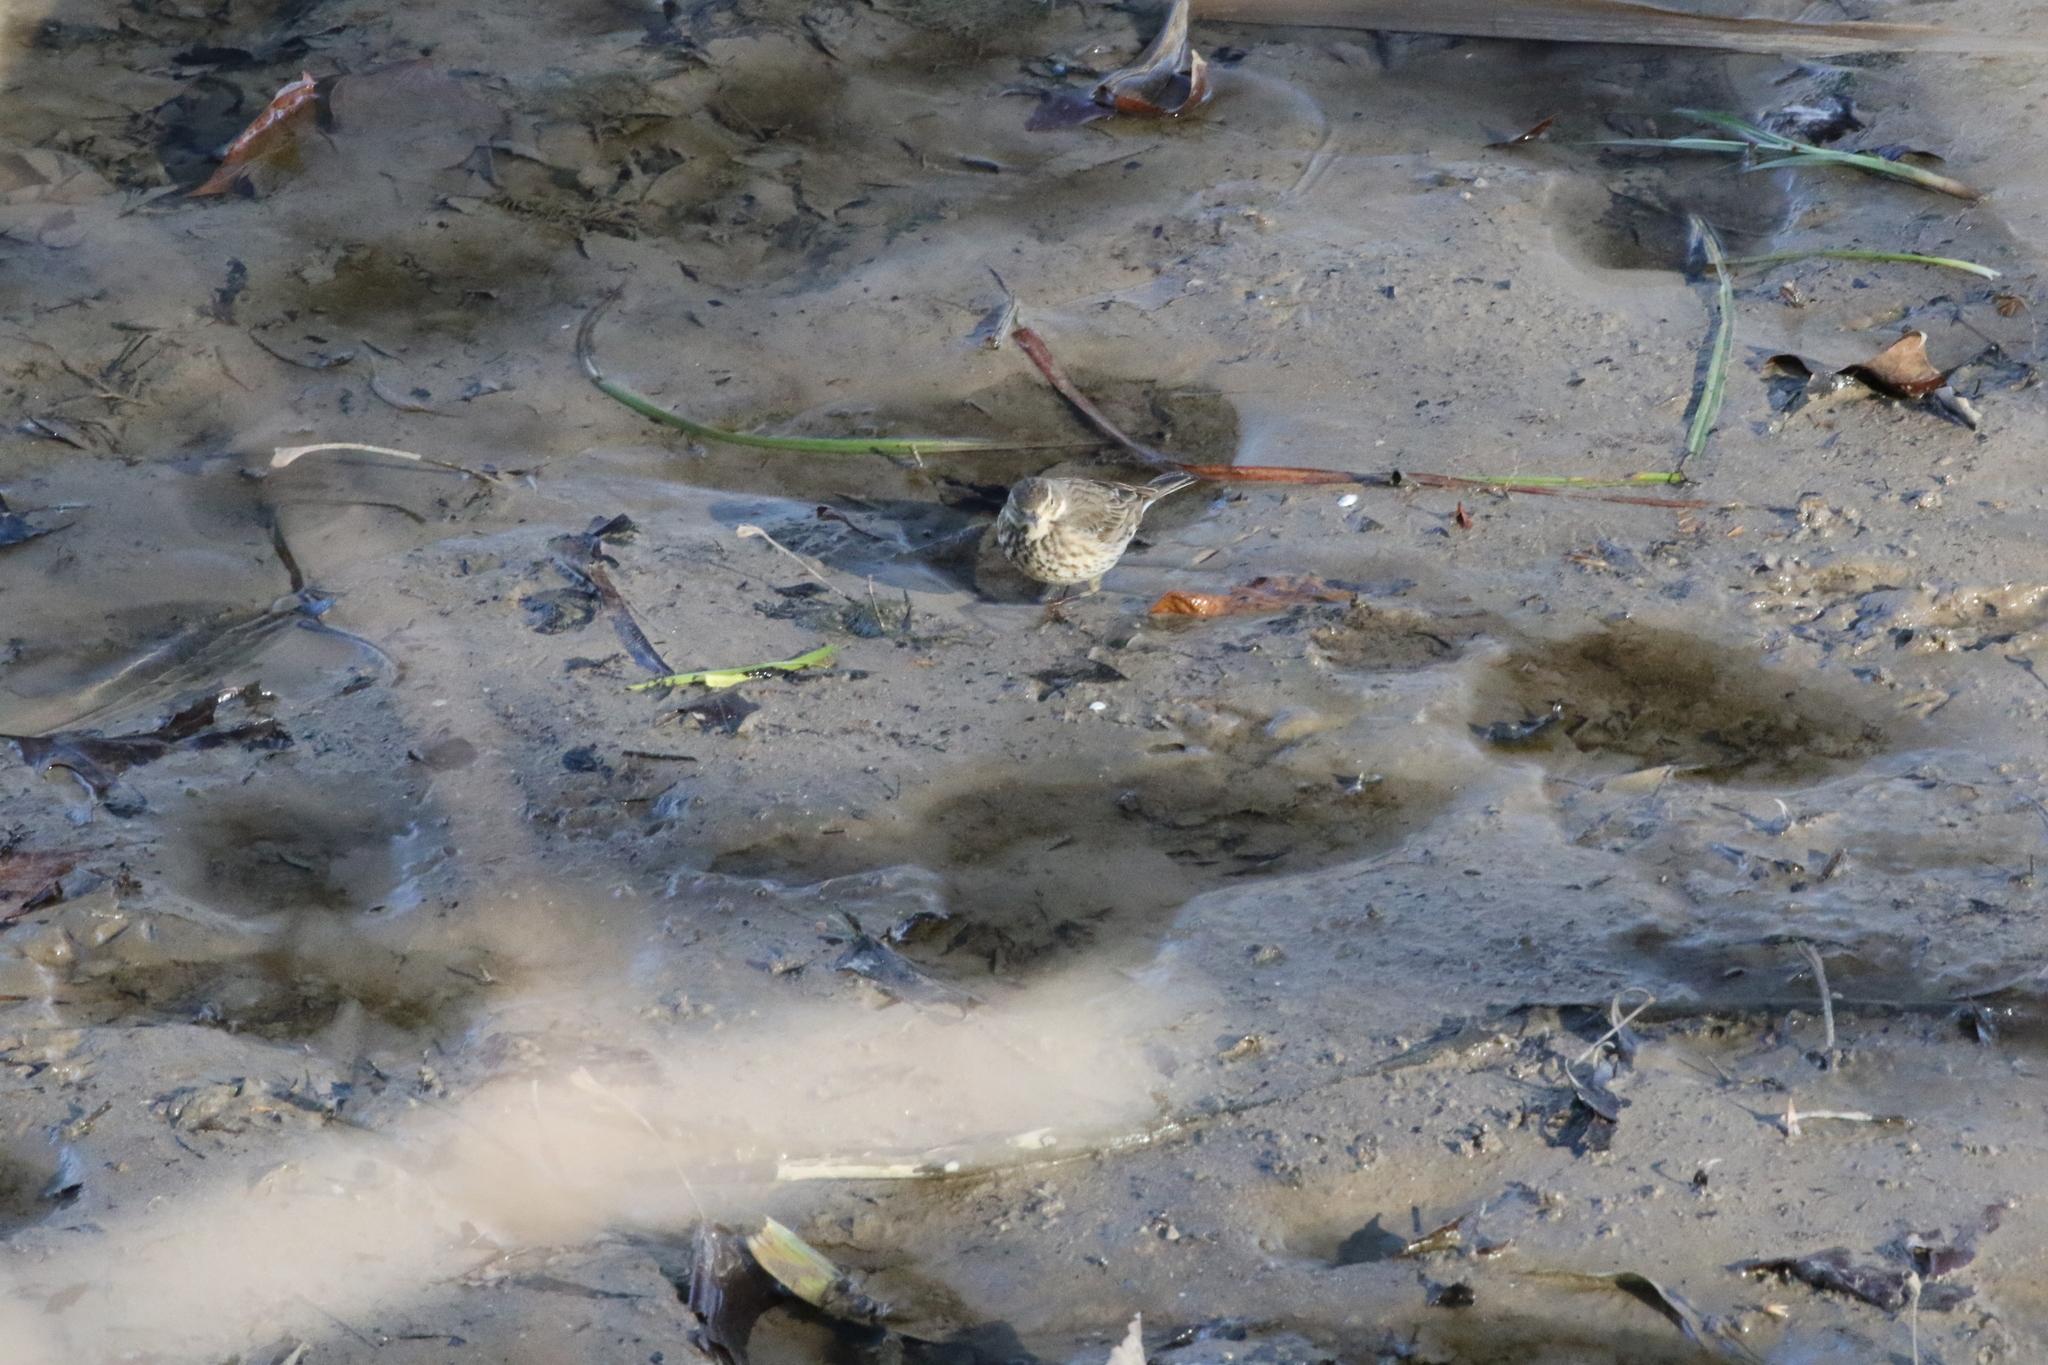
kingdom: Animalia
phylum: Chordata
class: Aves
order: Passeriformes
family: Motacillidae
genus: Anthus
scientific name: Anthus rubescens
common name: Buff-bellied pipit
